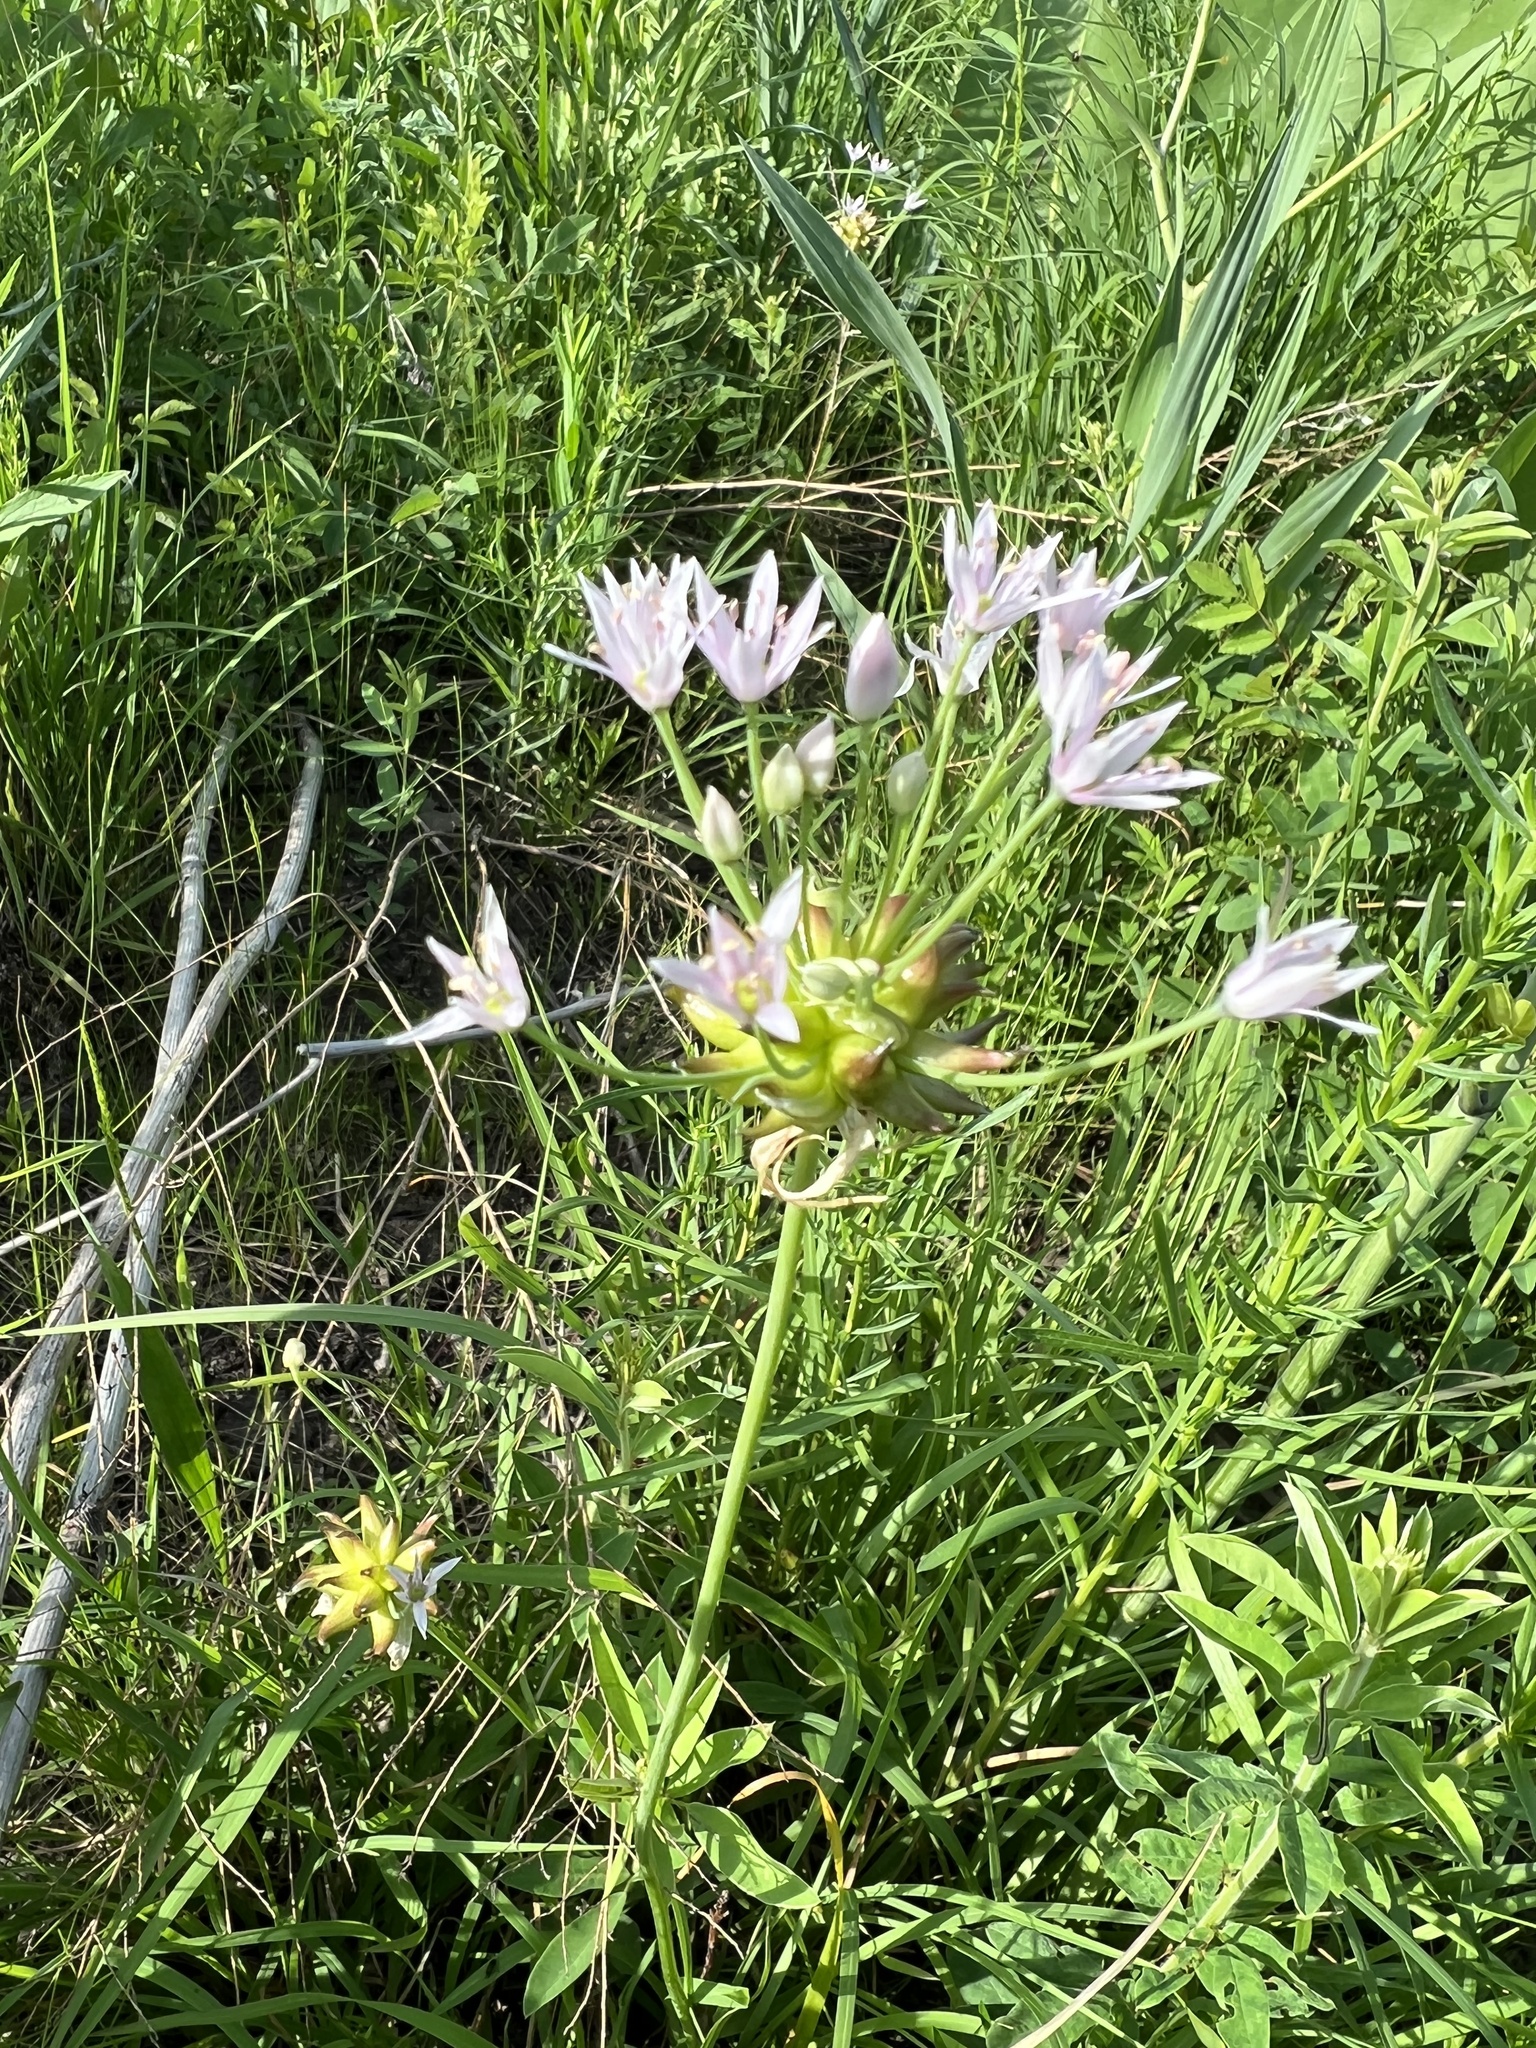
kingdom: Plantae
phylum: Tracheophyta
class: Liliopsida
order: Asparagales
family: Amaryllidaceae
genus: Allium
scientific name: Allium canadense
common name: Meadow garlic
